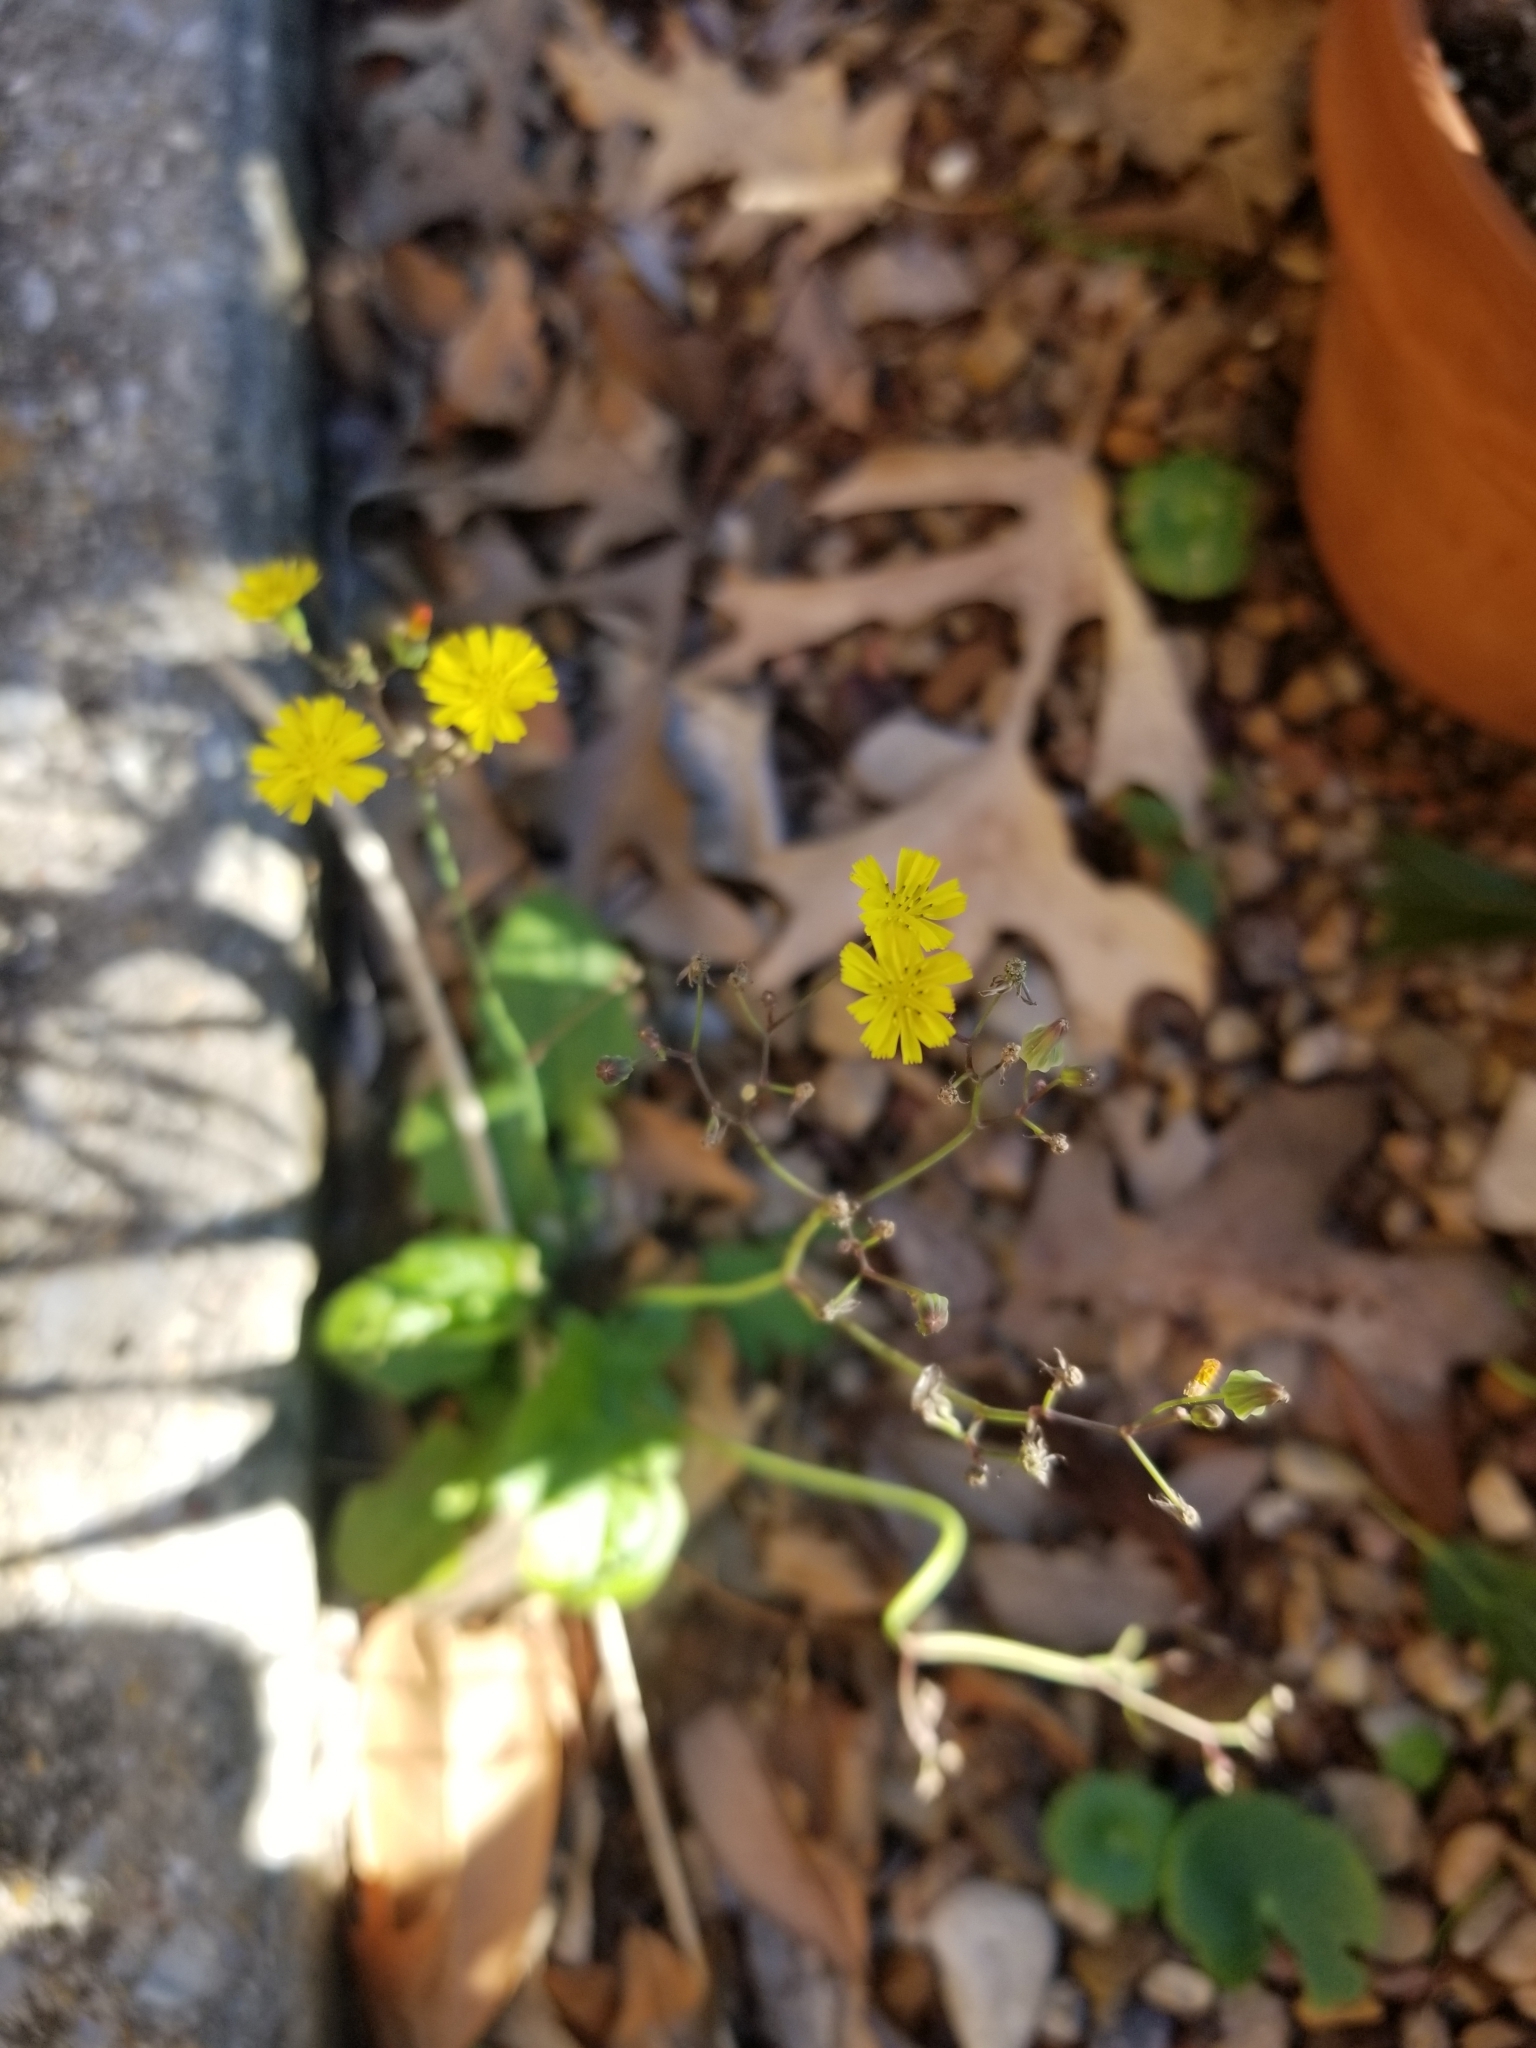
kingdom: Plantae
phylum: Tracheophyta
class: Magnoliopsida
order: Asterales
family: Asteraceae
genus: Youngia
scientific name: Youngia japonica
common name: Oriental false hawksbeard
